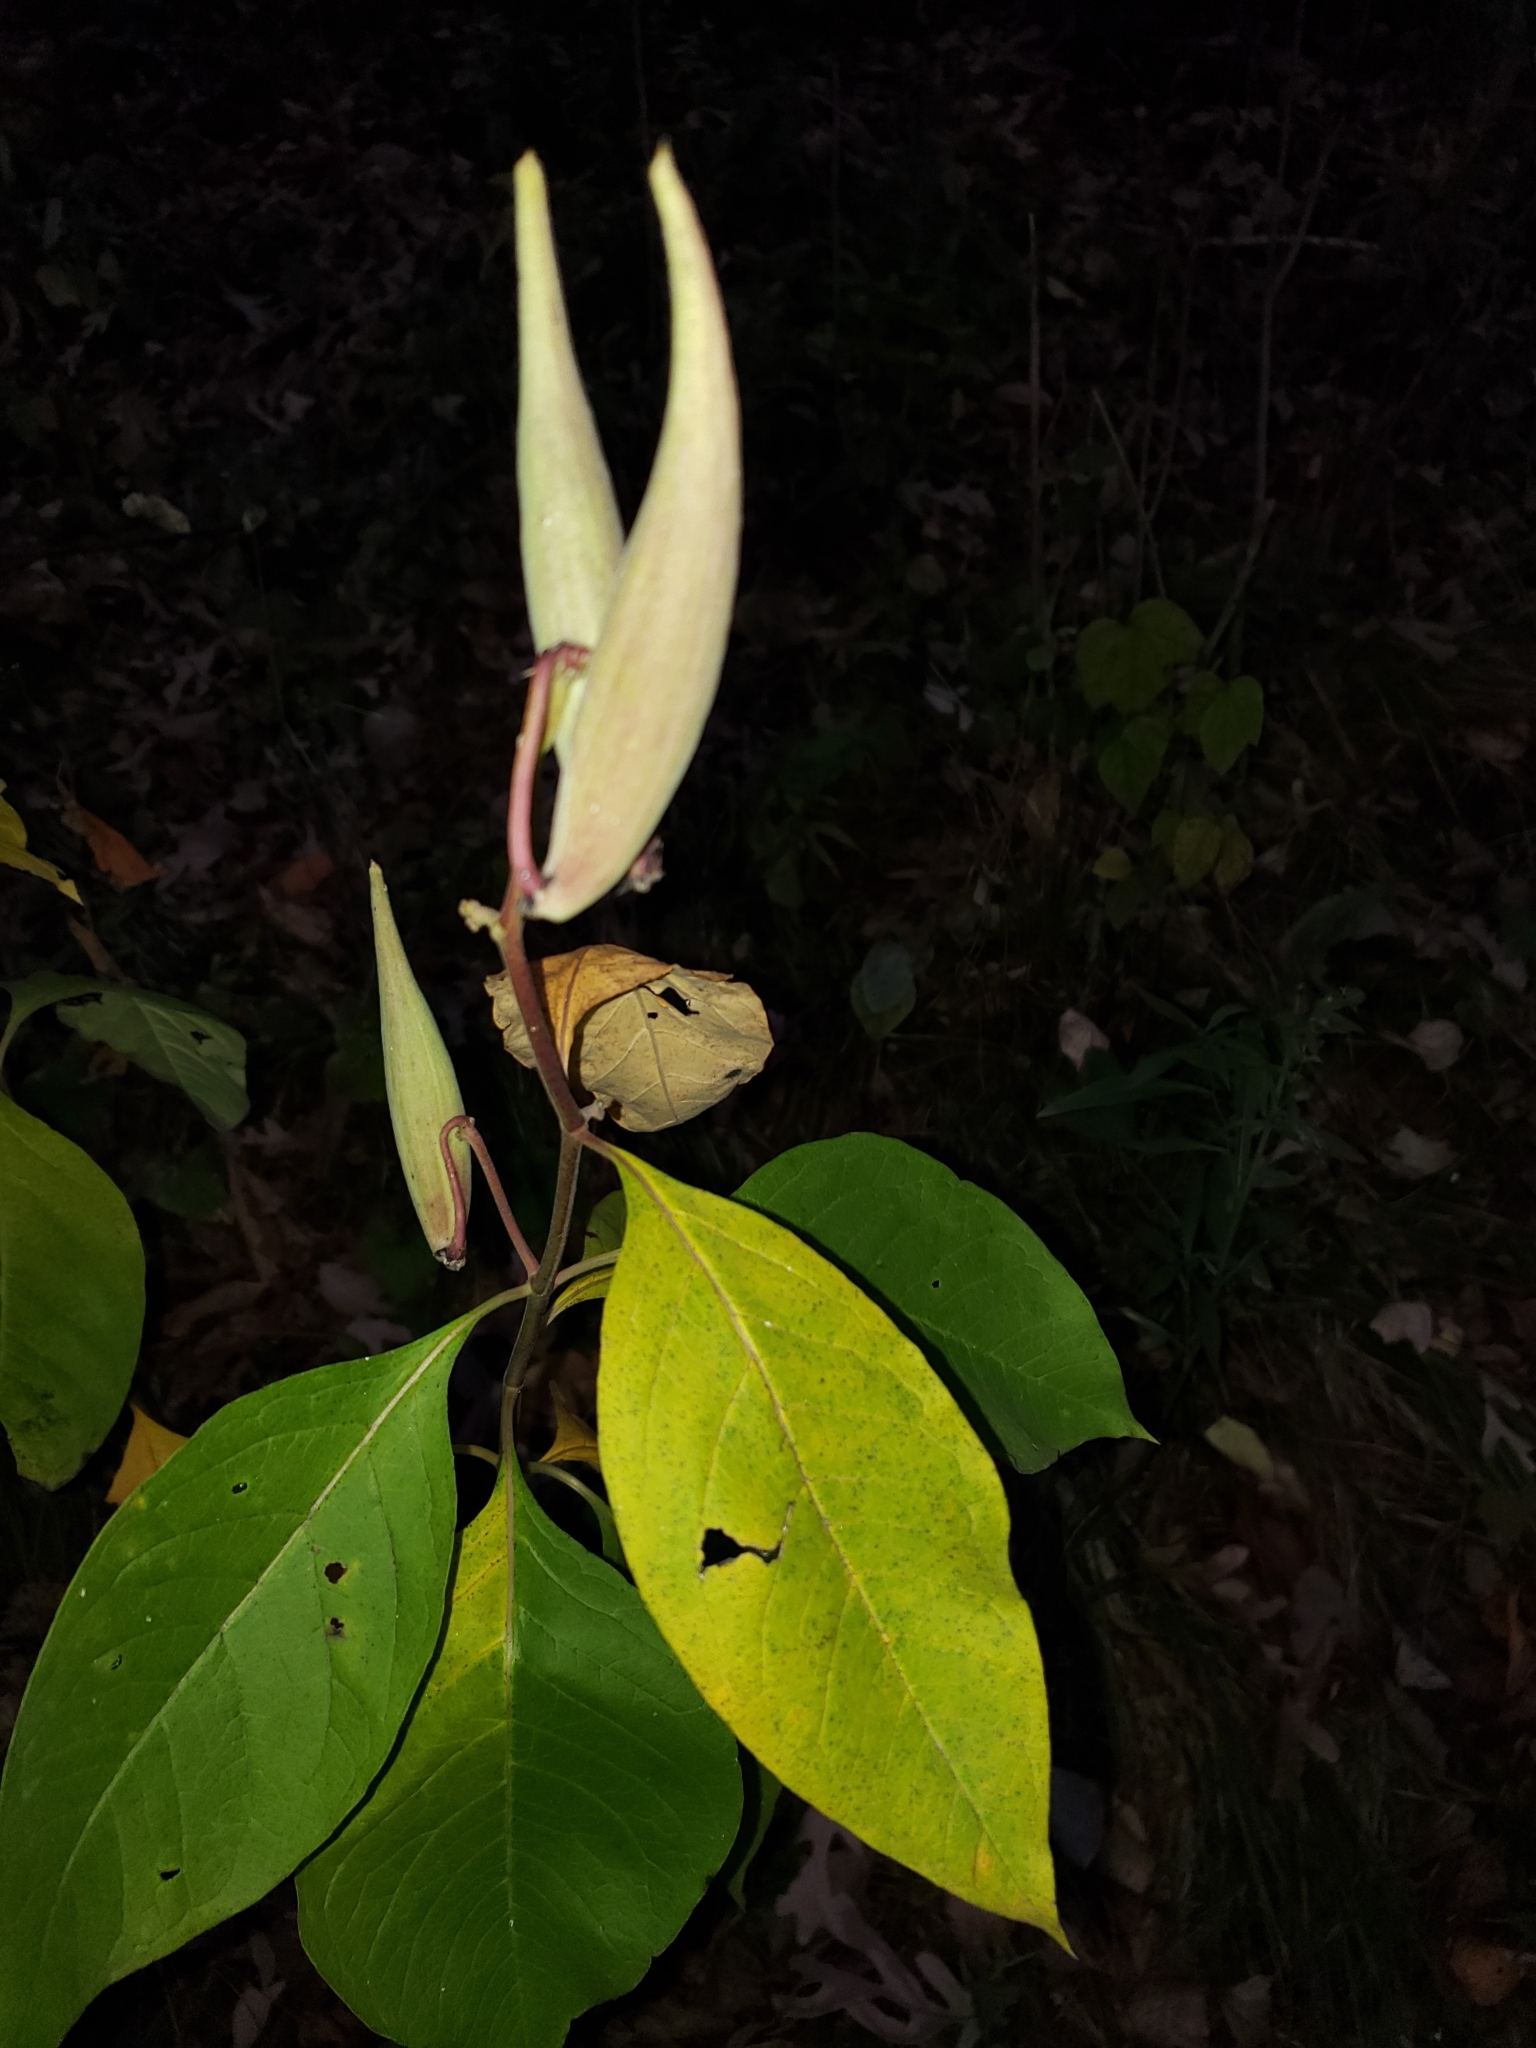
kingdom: Plantae
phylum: Tracheophyta
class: Magnoliopsida
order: Gentianales
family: Apocynaceae
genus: Asclepias
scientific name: Asclepias exaltata
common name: Poke milkweed
